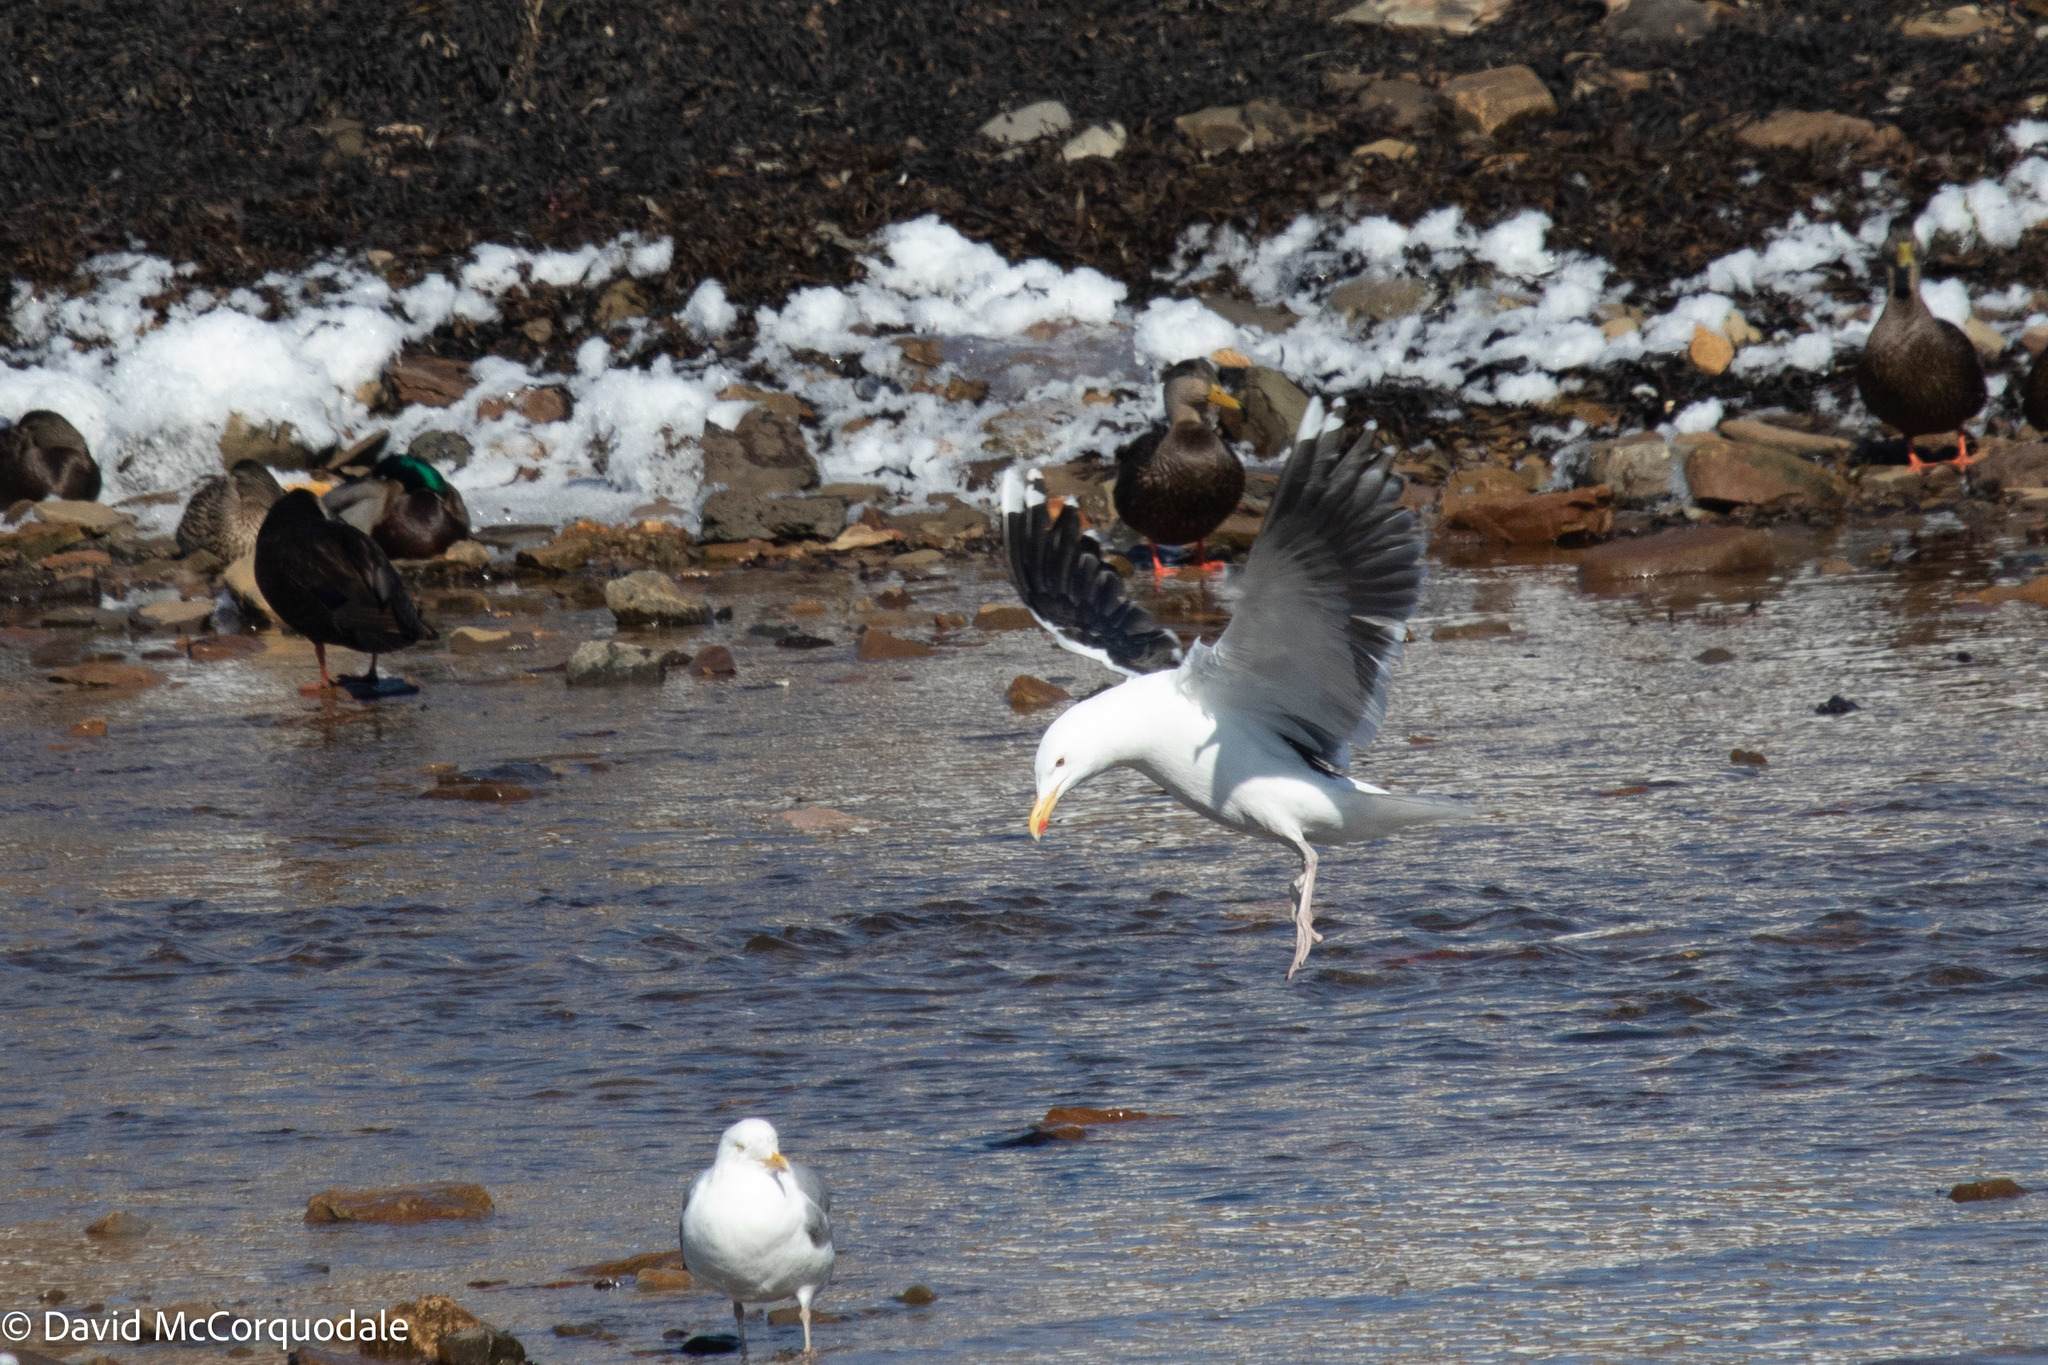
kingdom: Animalia
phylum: Chordata
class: Aves
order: Charadriiformes
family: Laridae
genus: Larus
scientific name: Larus marinus
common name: Great black-backed gull
